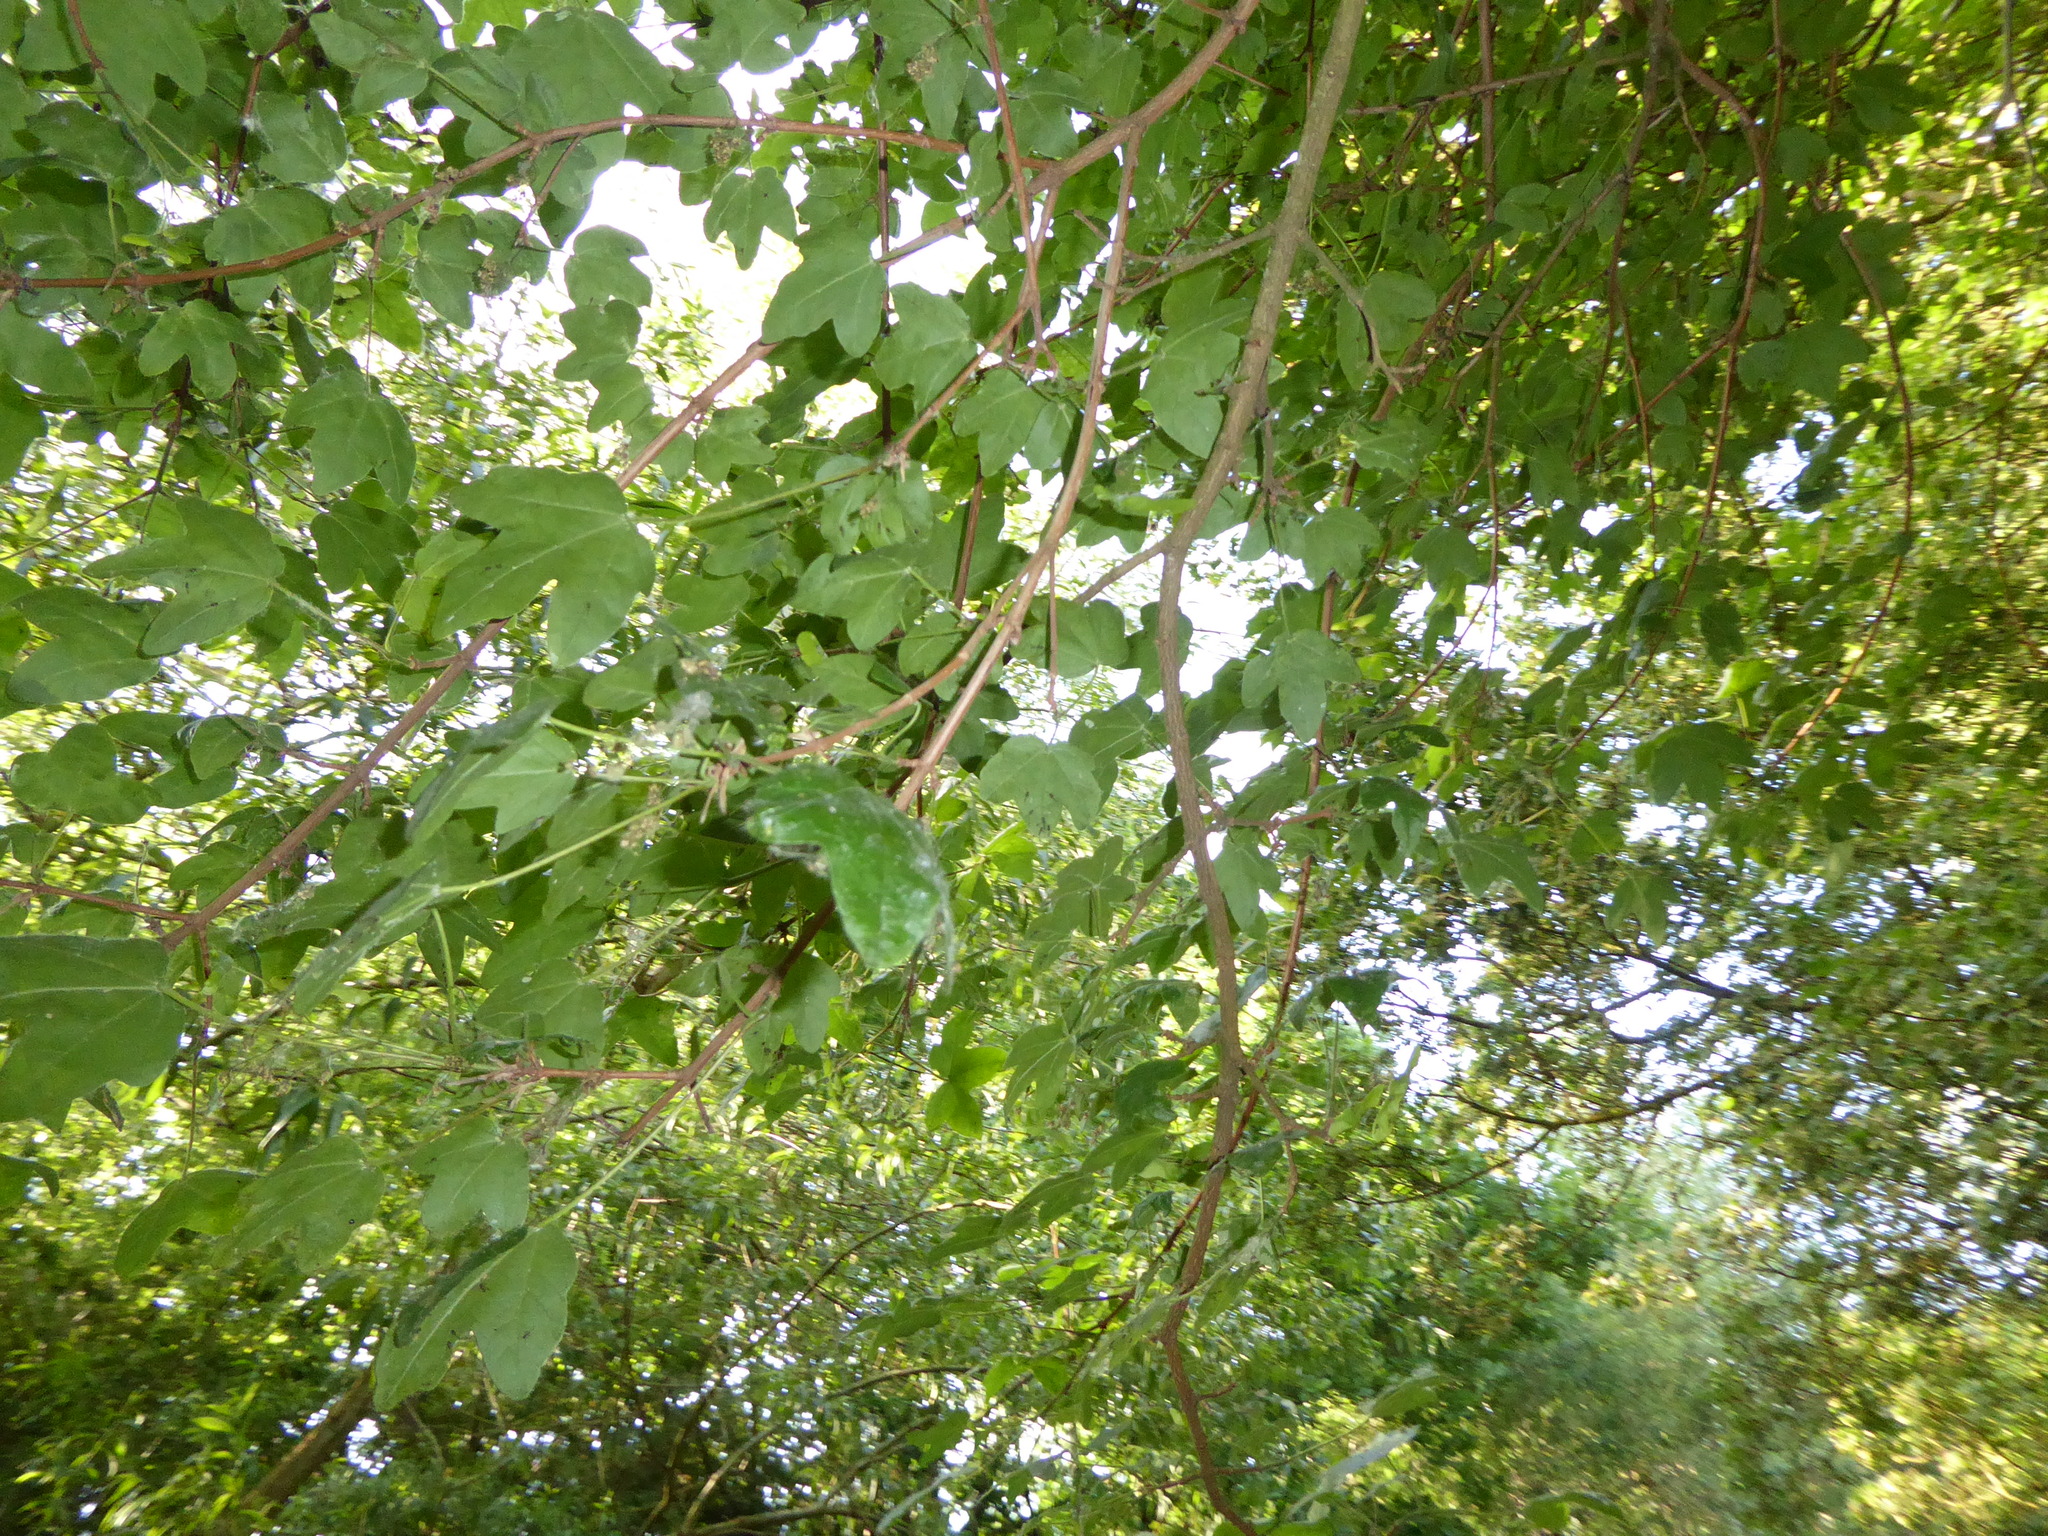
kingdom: Plantae
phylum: Tracheophyta
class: Magnoliopsida
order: Sapindales
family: Sapindaceae
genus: Acer
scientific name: Acer campestre
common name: Field maple
